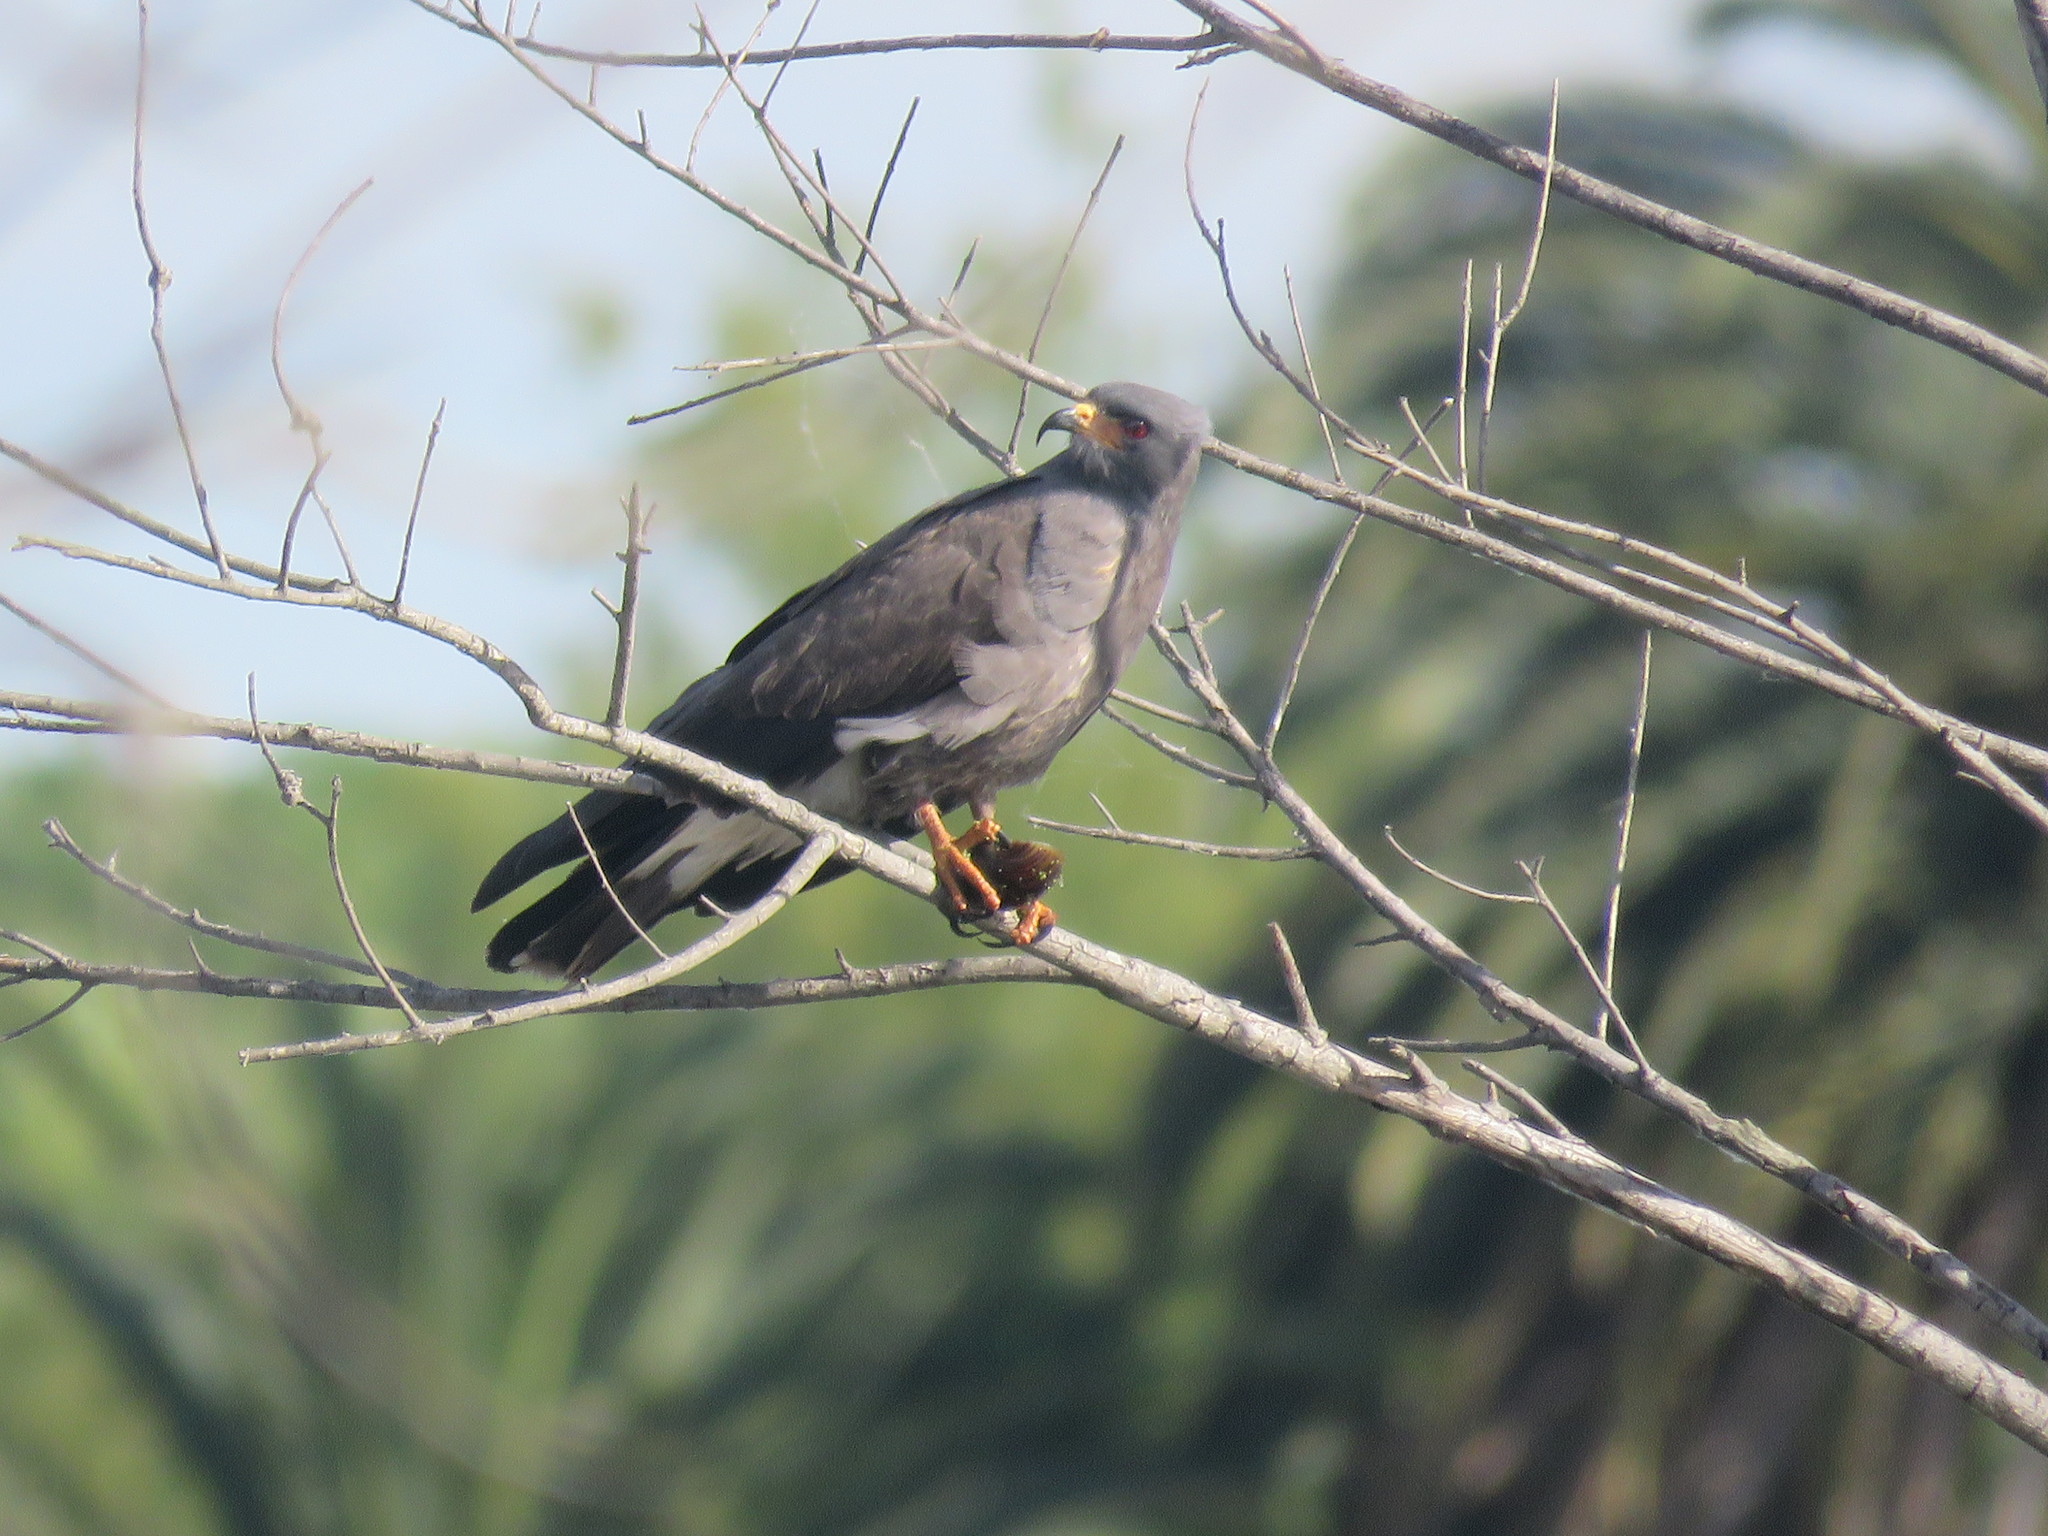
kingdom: Animalia
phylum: Chordata
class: Aves
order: Accipitriformes
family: Accipitridae
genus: Rostrhamus
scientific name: Rostrhamus sociabilis
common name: Snail kite
